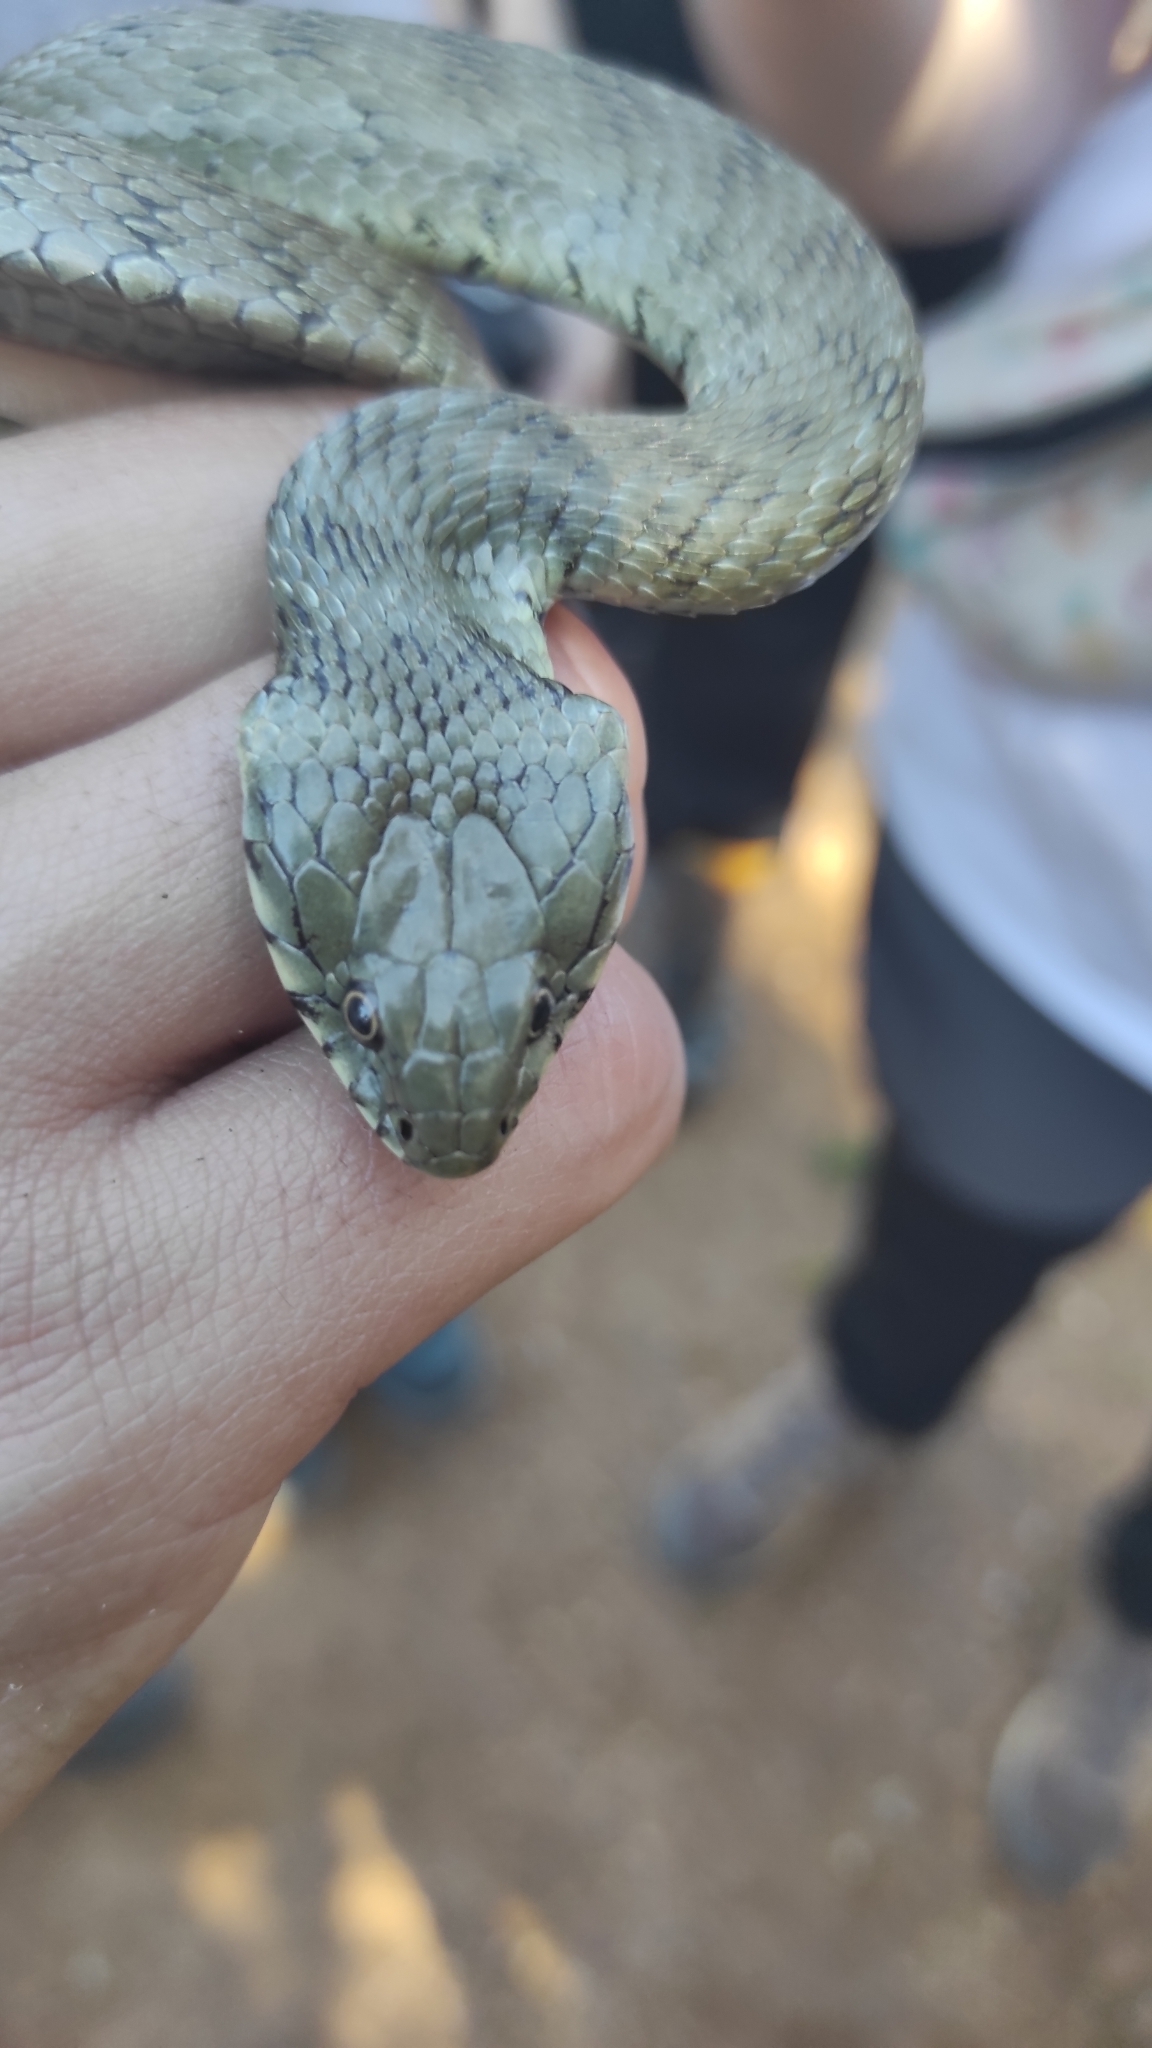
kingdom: Animalia
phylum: Chordata
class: Squamata
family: Colubridae
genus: Natrix
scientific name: Natrix astreptophora
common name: Red-eyed grass snake
